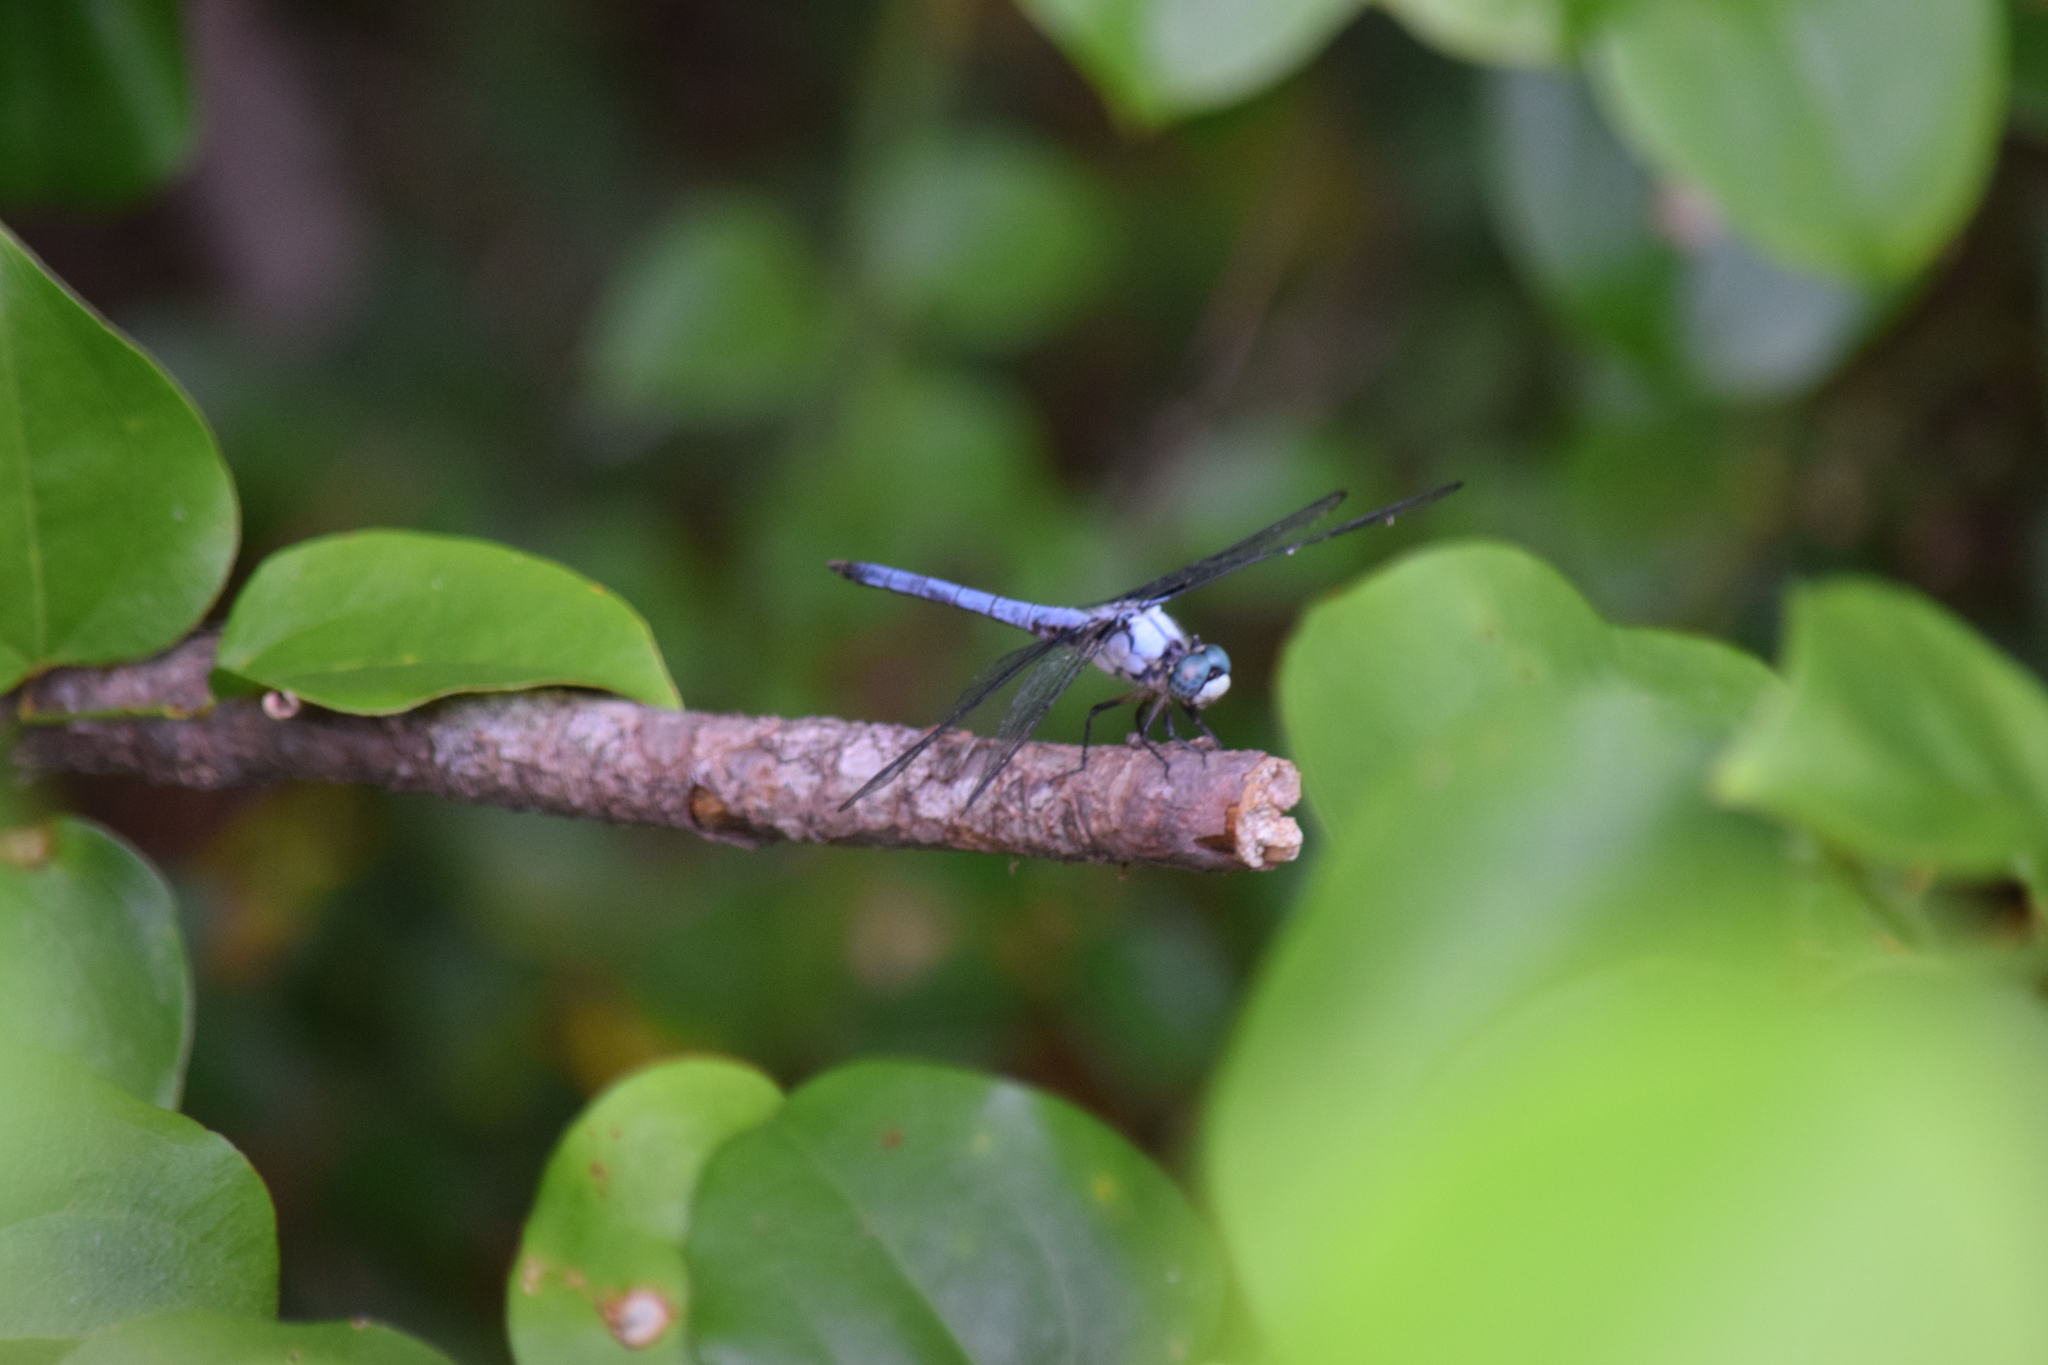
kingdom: Animalia
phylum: Arthropoda
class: Insecta
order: Odonata
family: Libellulidae
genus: Libellula
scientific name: Libellula vibrans
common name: Great blue skimmer
